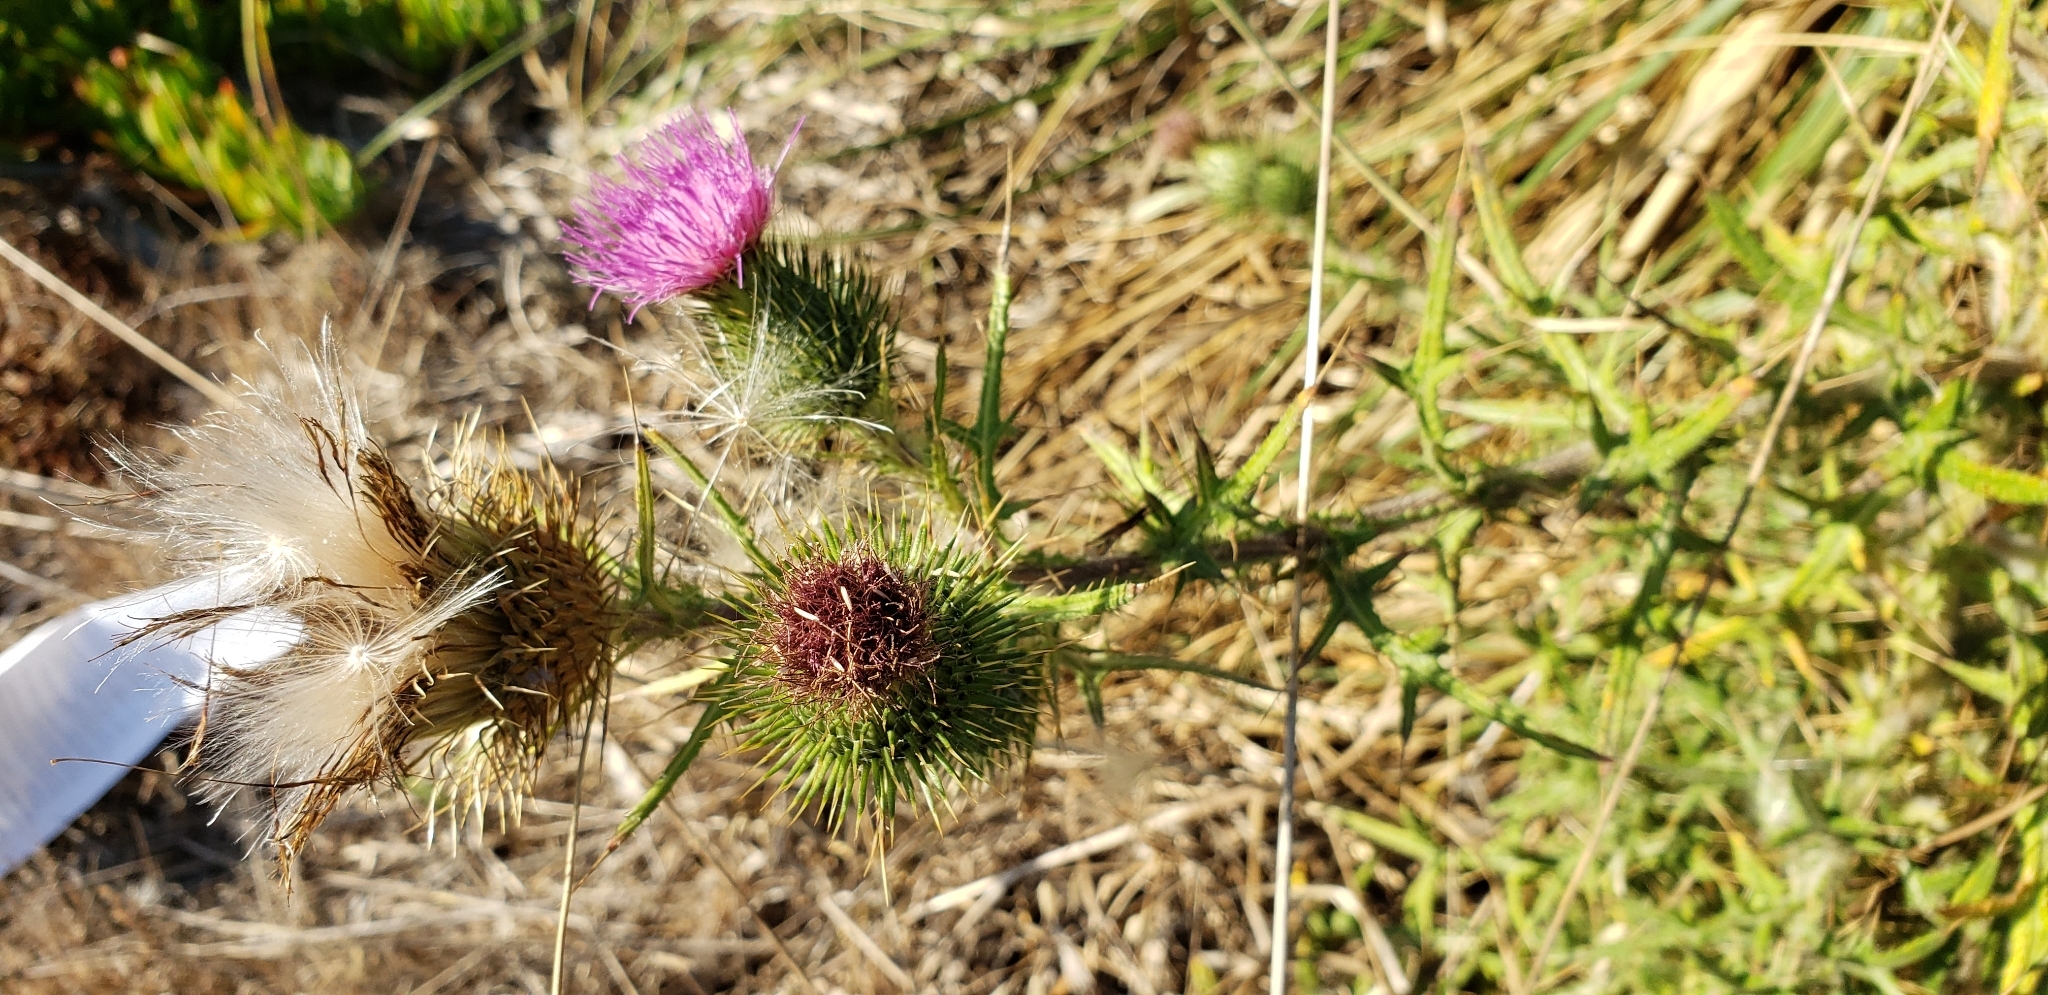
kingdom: Plantae
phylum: Tracheophyta
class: Magnoliopsida
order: Asterales
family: Asteraceae
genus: Cirsium
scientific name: Cirsium vulgare
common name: Bull thistle
